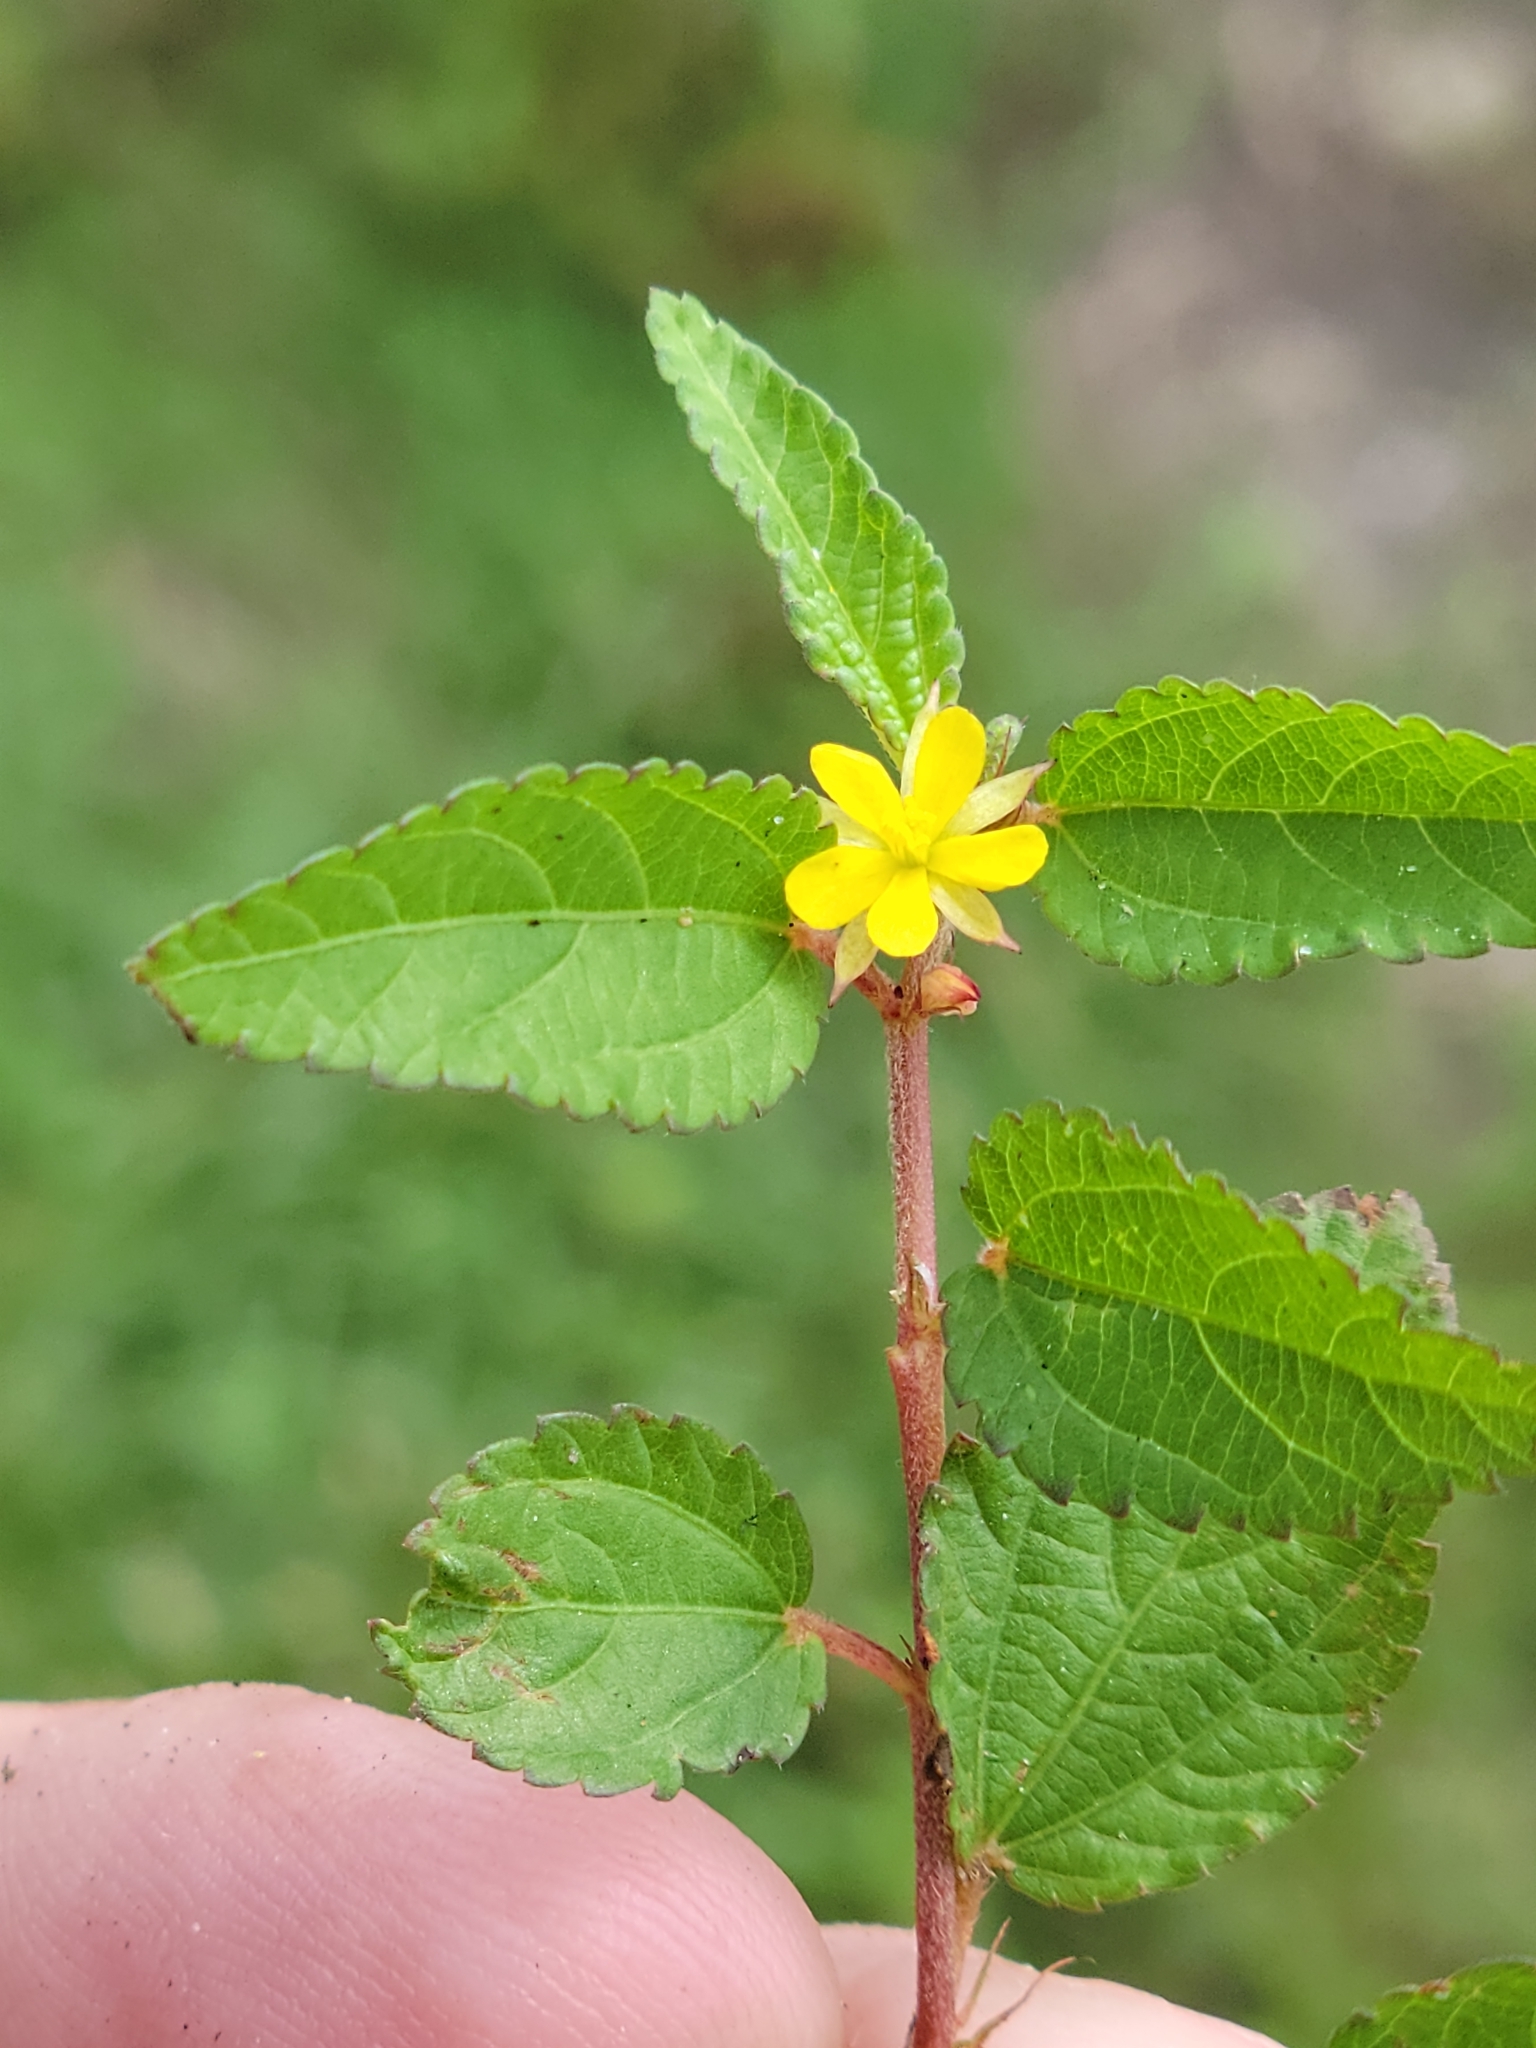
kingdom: Plantae
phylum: Tracheophyta
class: Magnoliopsida
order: Malvales
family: Malvaceae
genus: Corchorus
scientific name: Corchorus aestuans
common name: Jute
